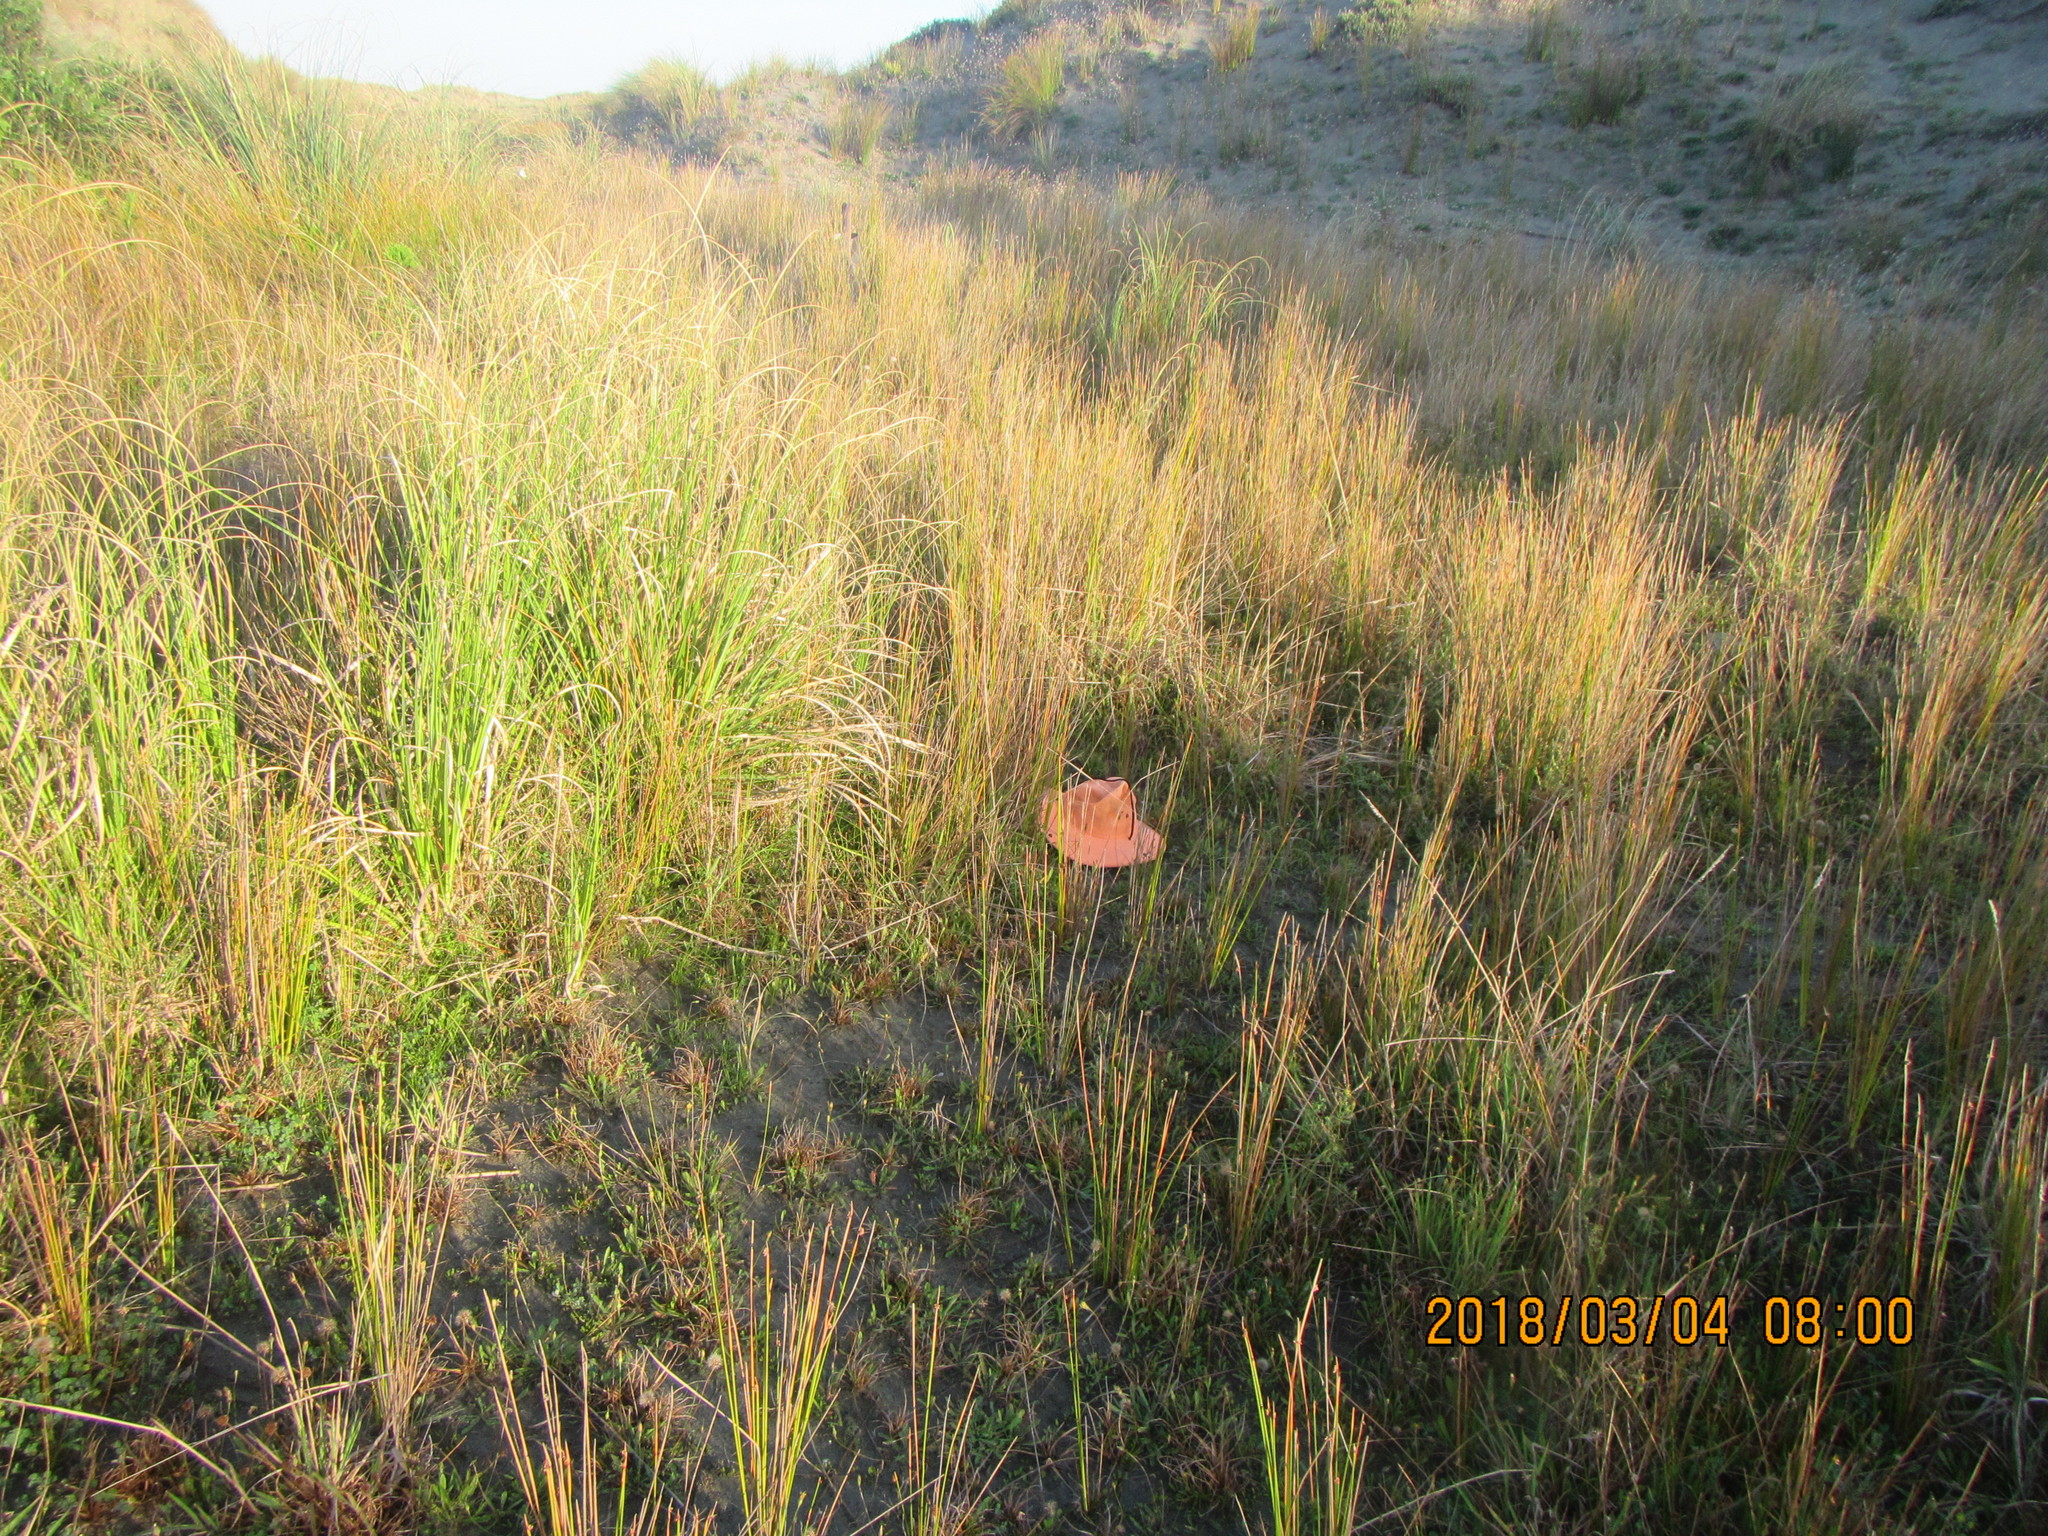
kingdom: Plantae
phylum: Tracheophyta
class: Magnoliopsida
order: Asterales
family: Campanulaceae
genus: Lobelia
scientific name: Lobelia anceps
